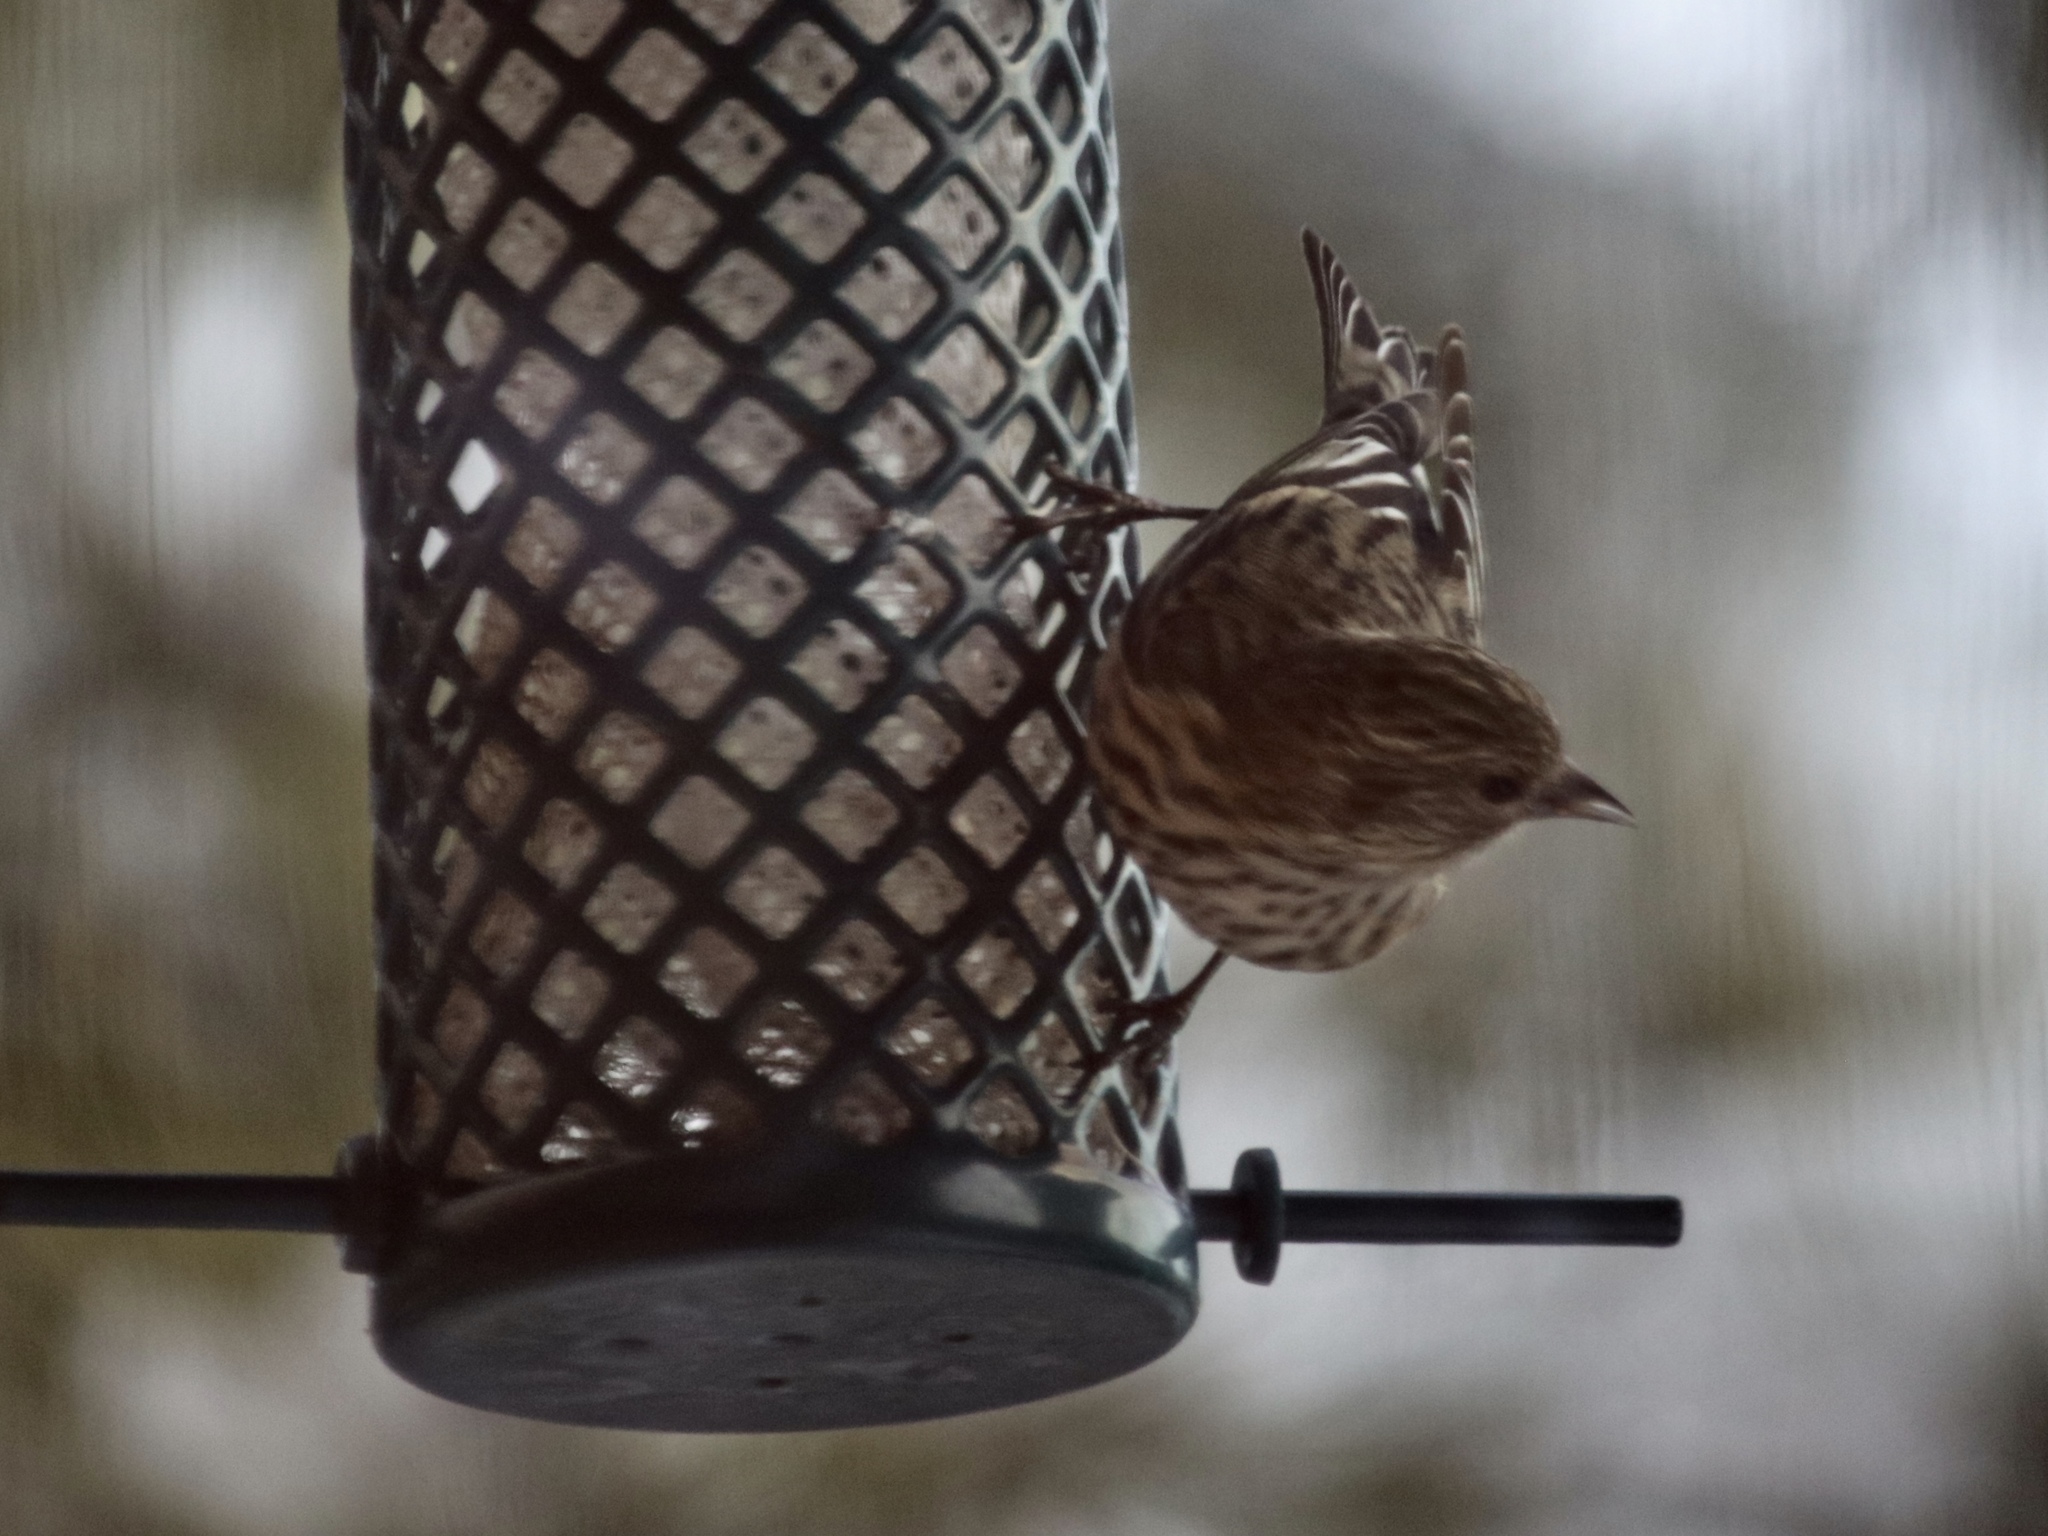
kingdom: Animalia
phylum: Chordata
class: Aves
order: Passeriformes
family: Fringillidae
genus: Spinus
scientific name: Spinus pinus
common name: Pine siskin
